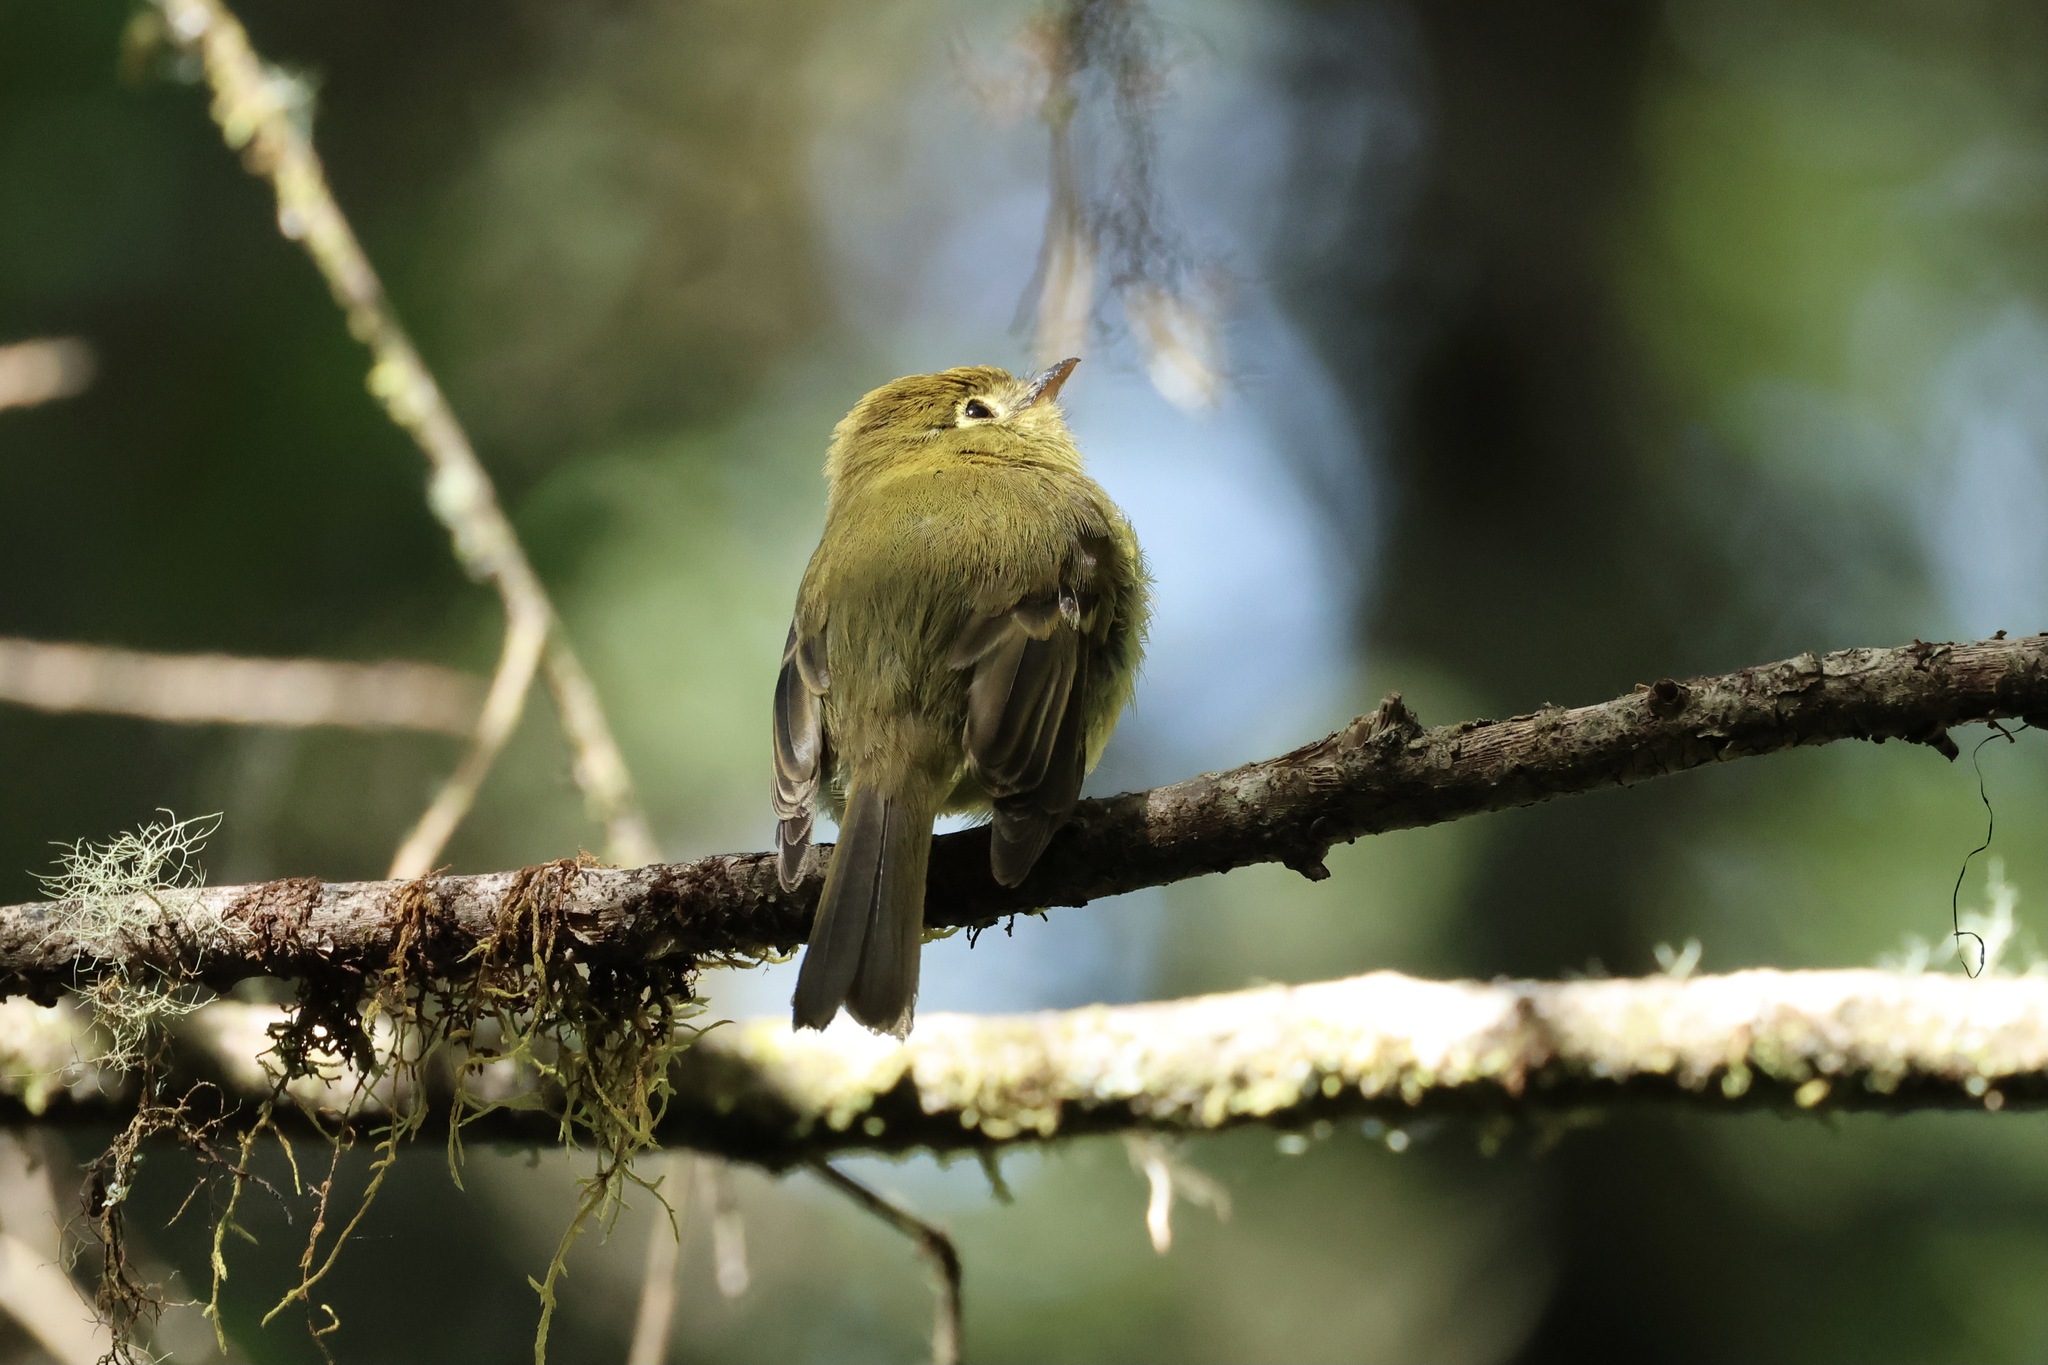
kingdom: Animalia
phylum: Chordata
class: Aves
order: Passeriformes
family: Tyrannidae
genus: Empidonax
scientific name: Empidonax flavescens
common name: Yellowish flycatcher
